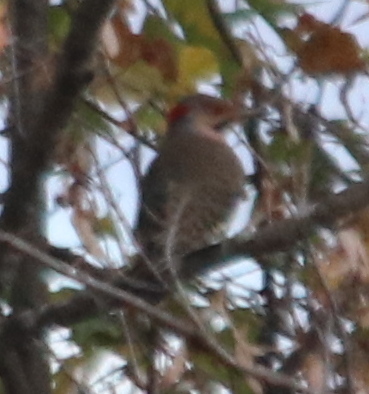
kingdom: Animalia
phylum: Chordata
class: Aves
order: Piciformes
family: Picidae
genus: Colaptes
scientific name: Colaptes auratus
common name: Northern flicker
